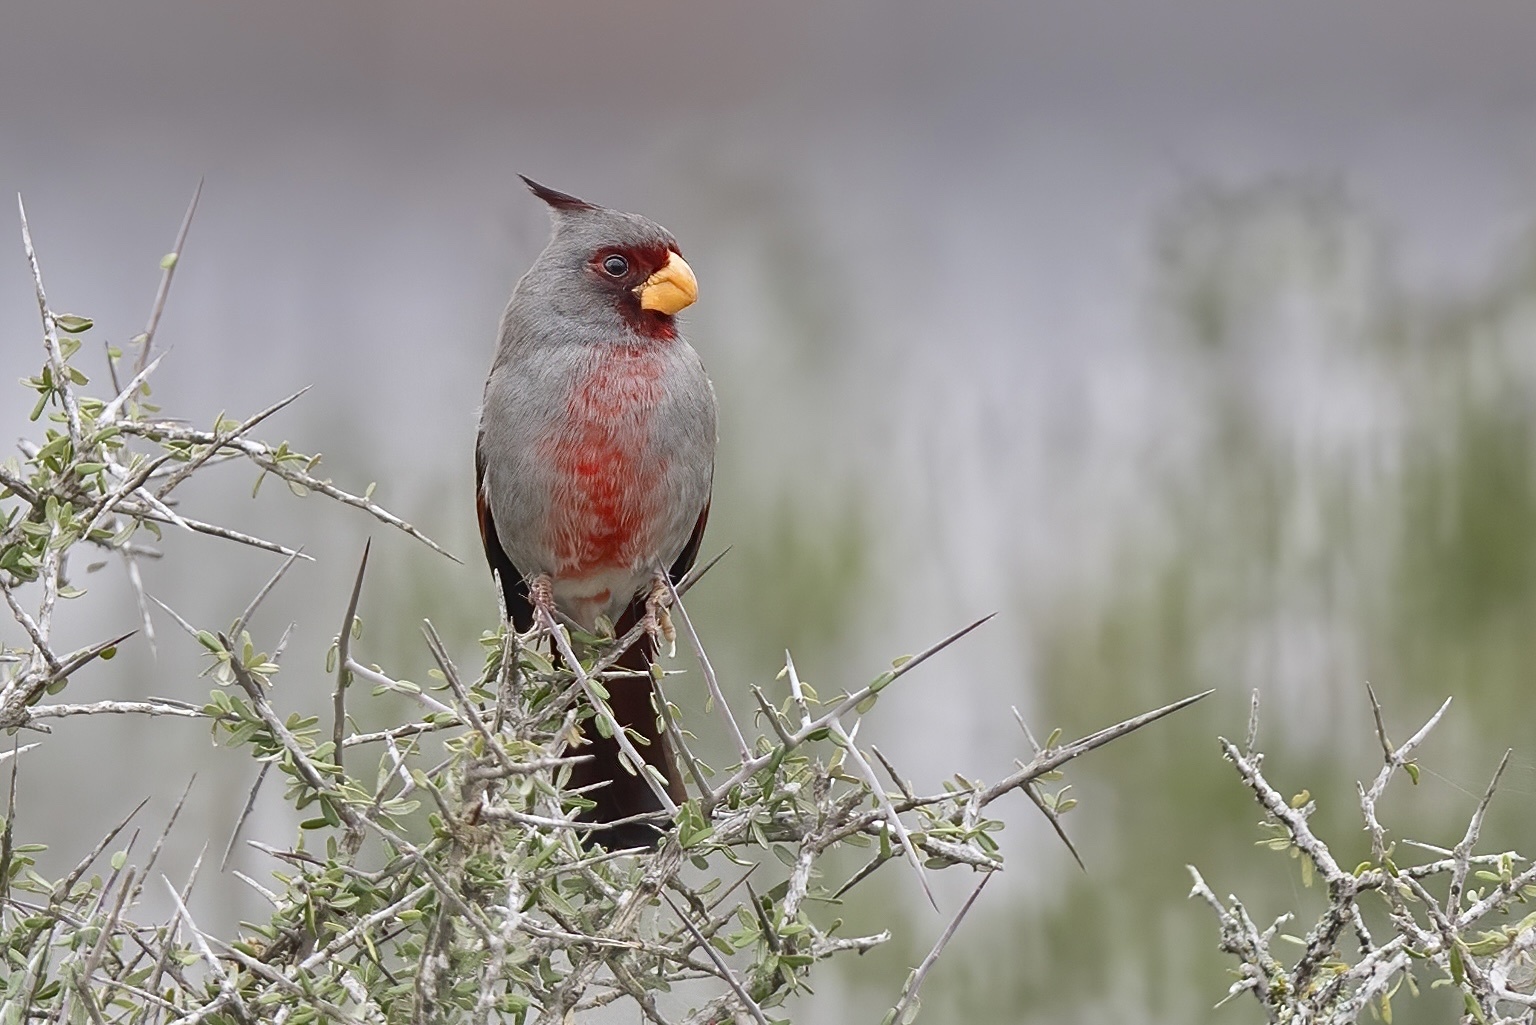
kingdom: Animalia
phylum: Chordata
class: Aves
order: Passeriformes
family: Cardinalidae
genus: Cardinalis
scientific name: Cardinalis sinuatus
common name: Pyrrhuloxia
